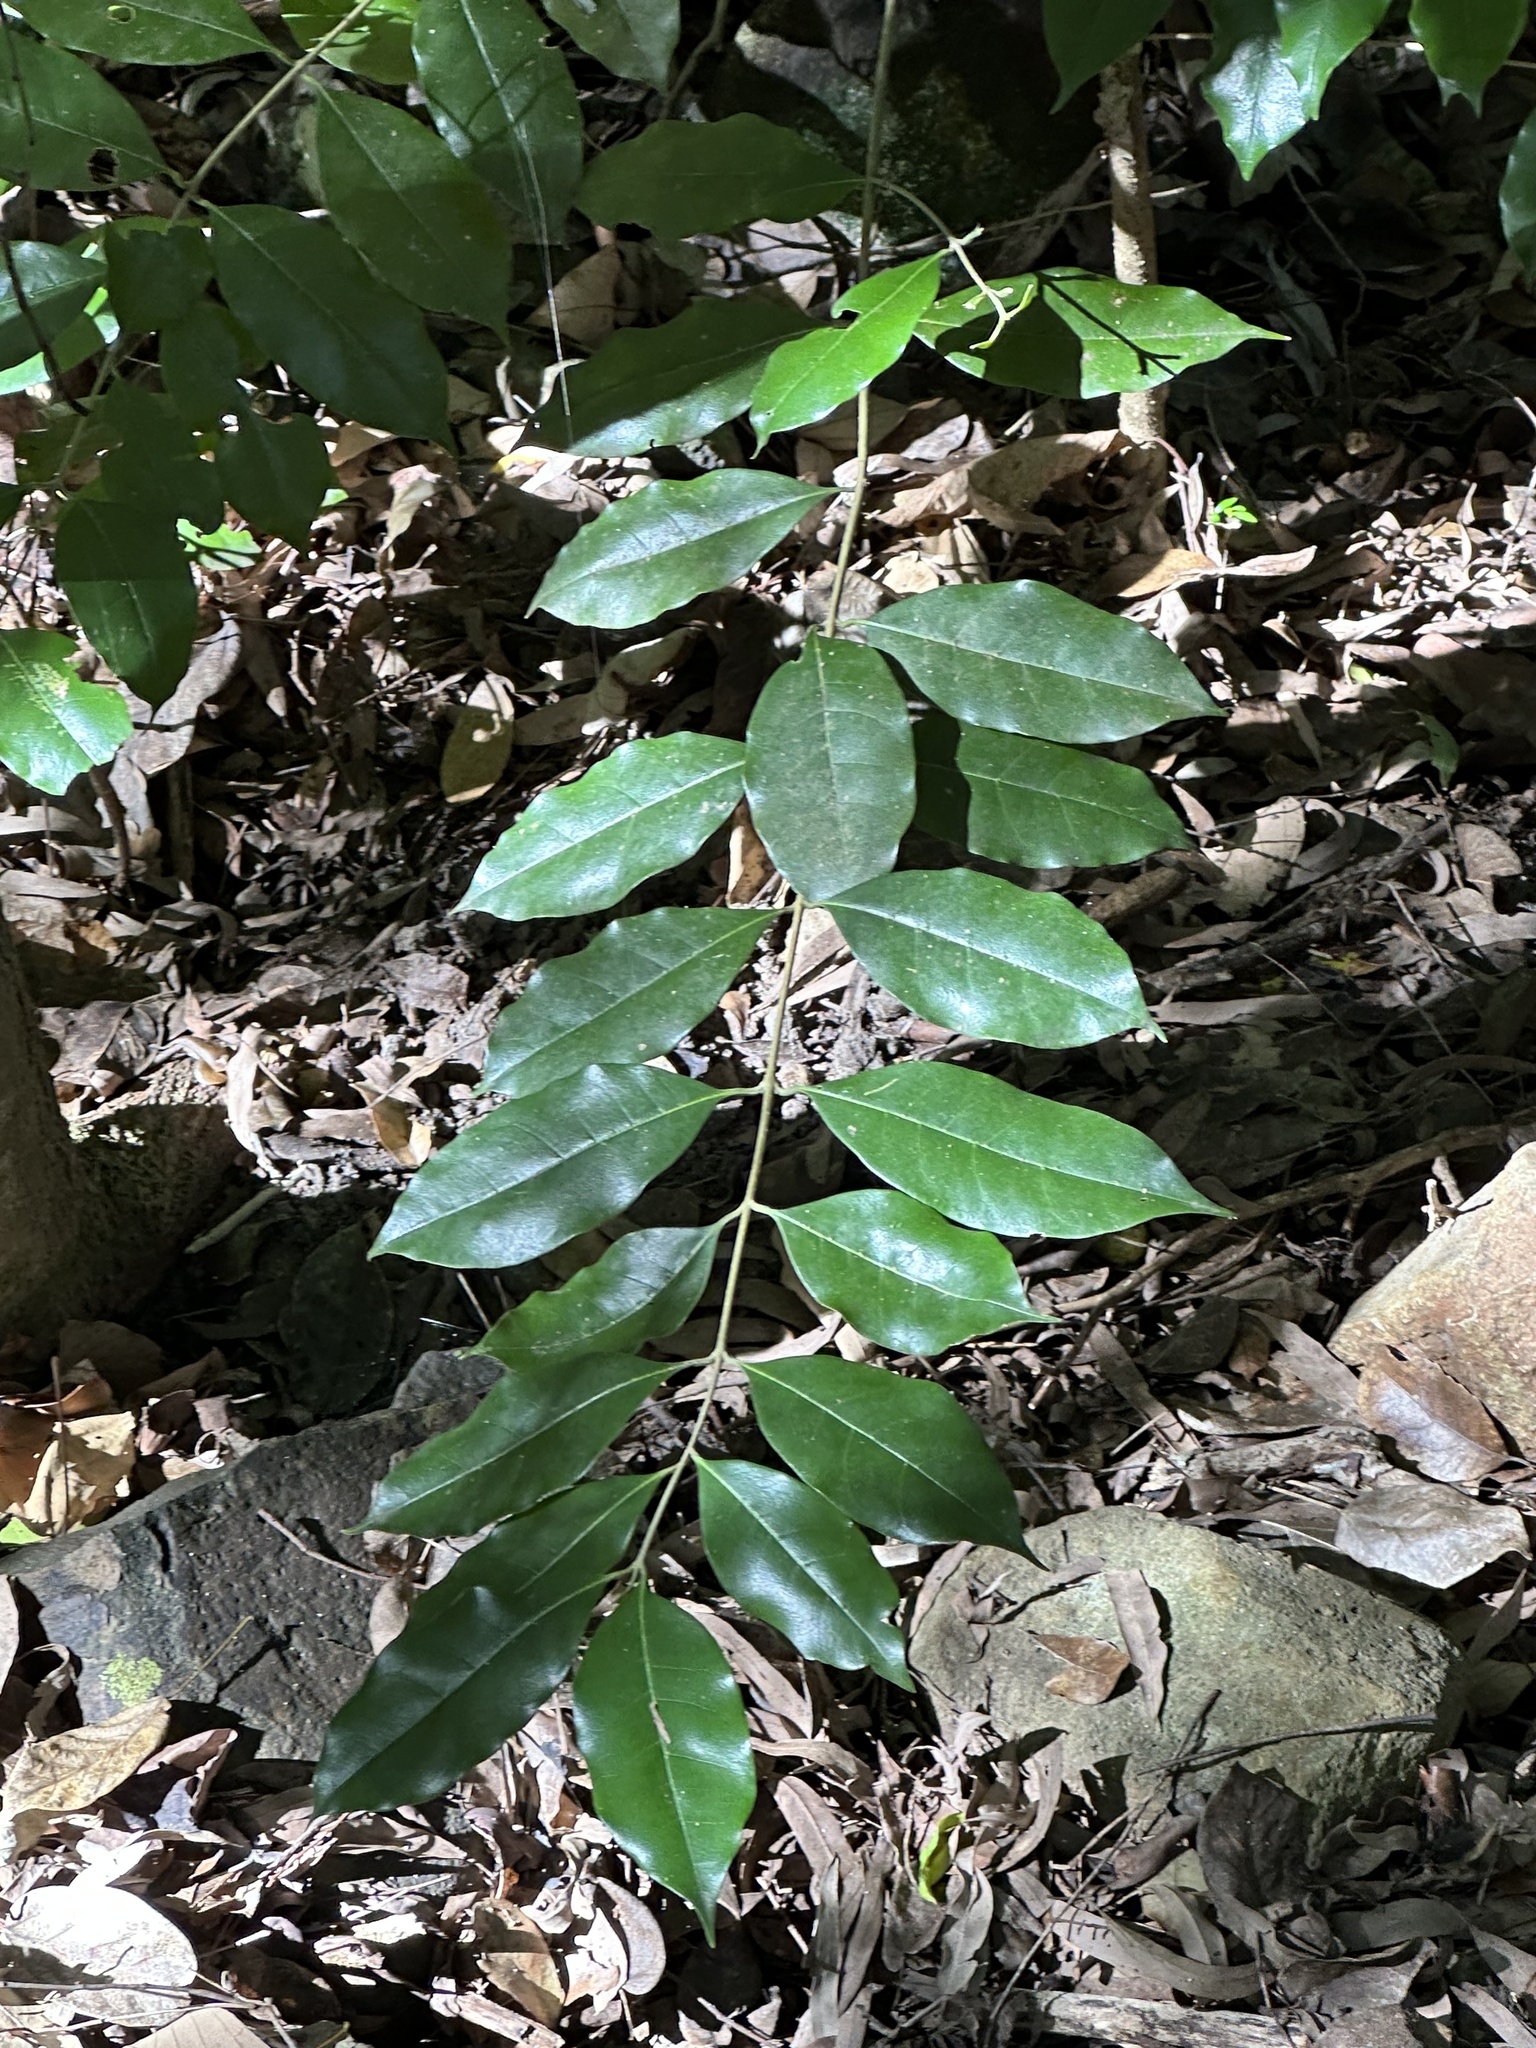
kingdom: Plantae
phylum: Tracheophyta
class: Magnoliopsida
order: Lamiales
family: Oleaceae
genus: Olea
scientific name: Olea paniculata
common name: Australian olive
